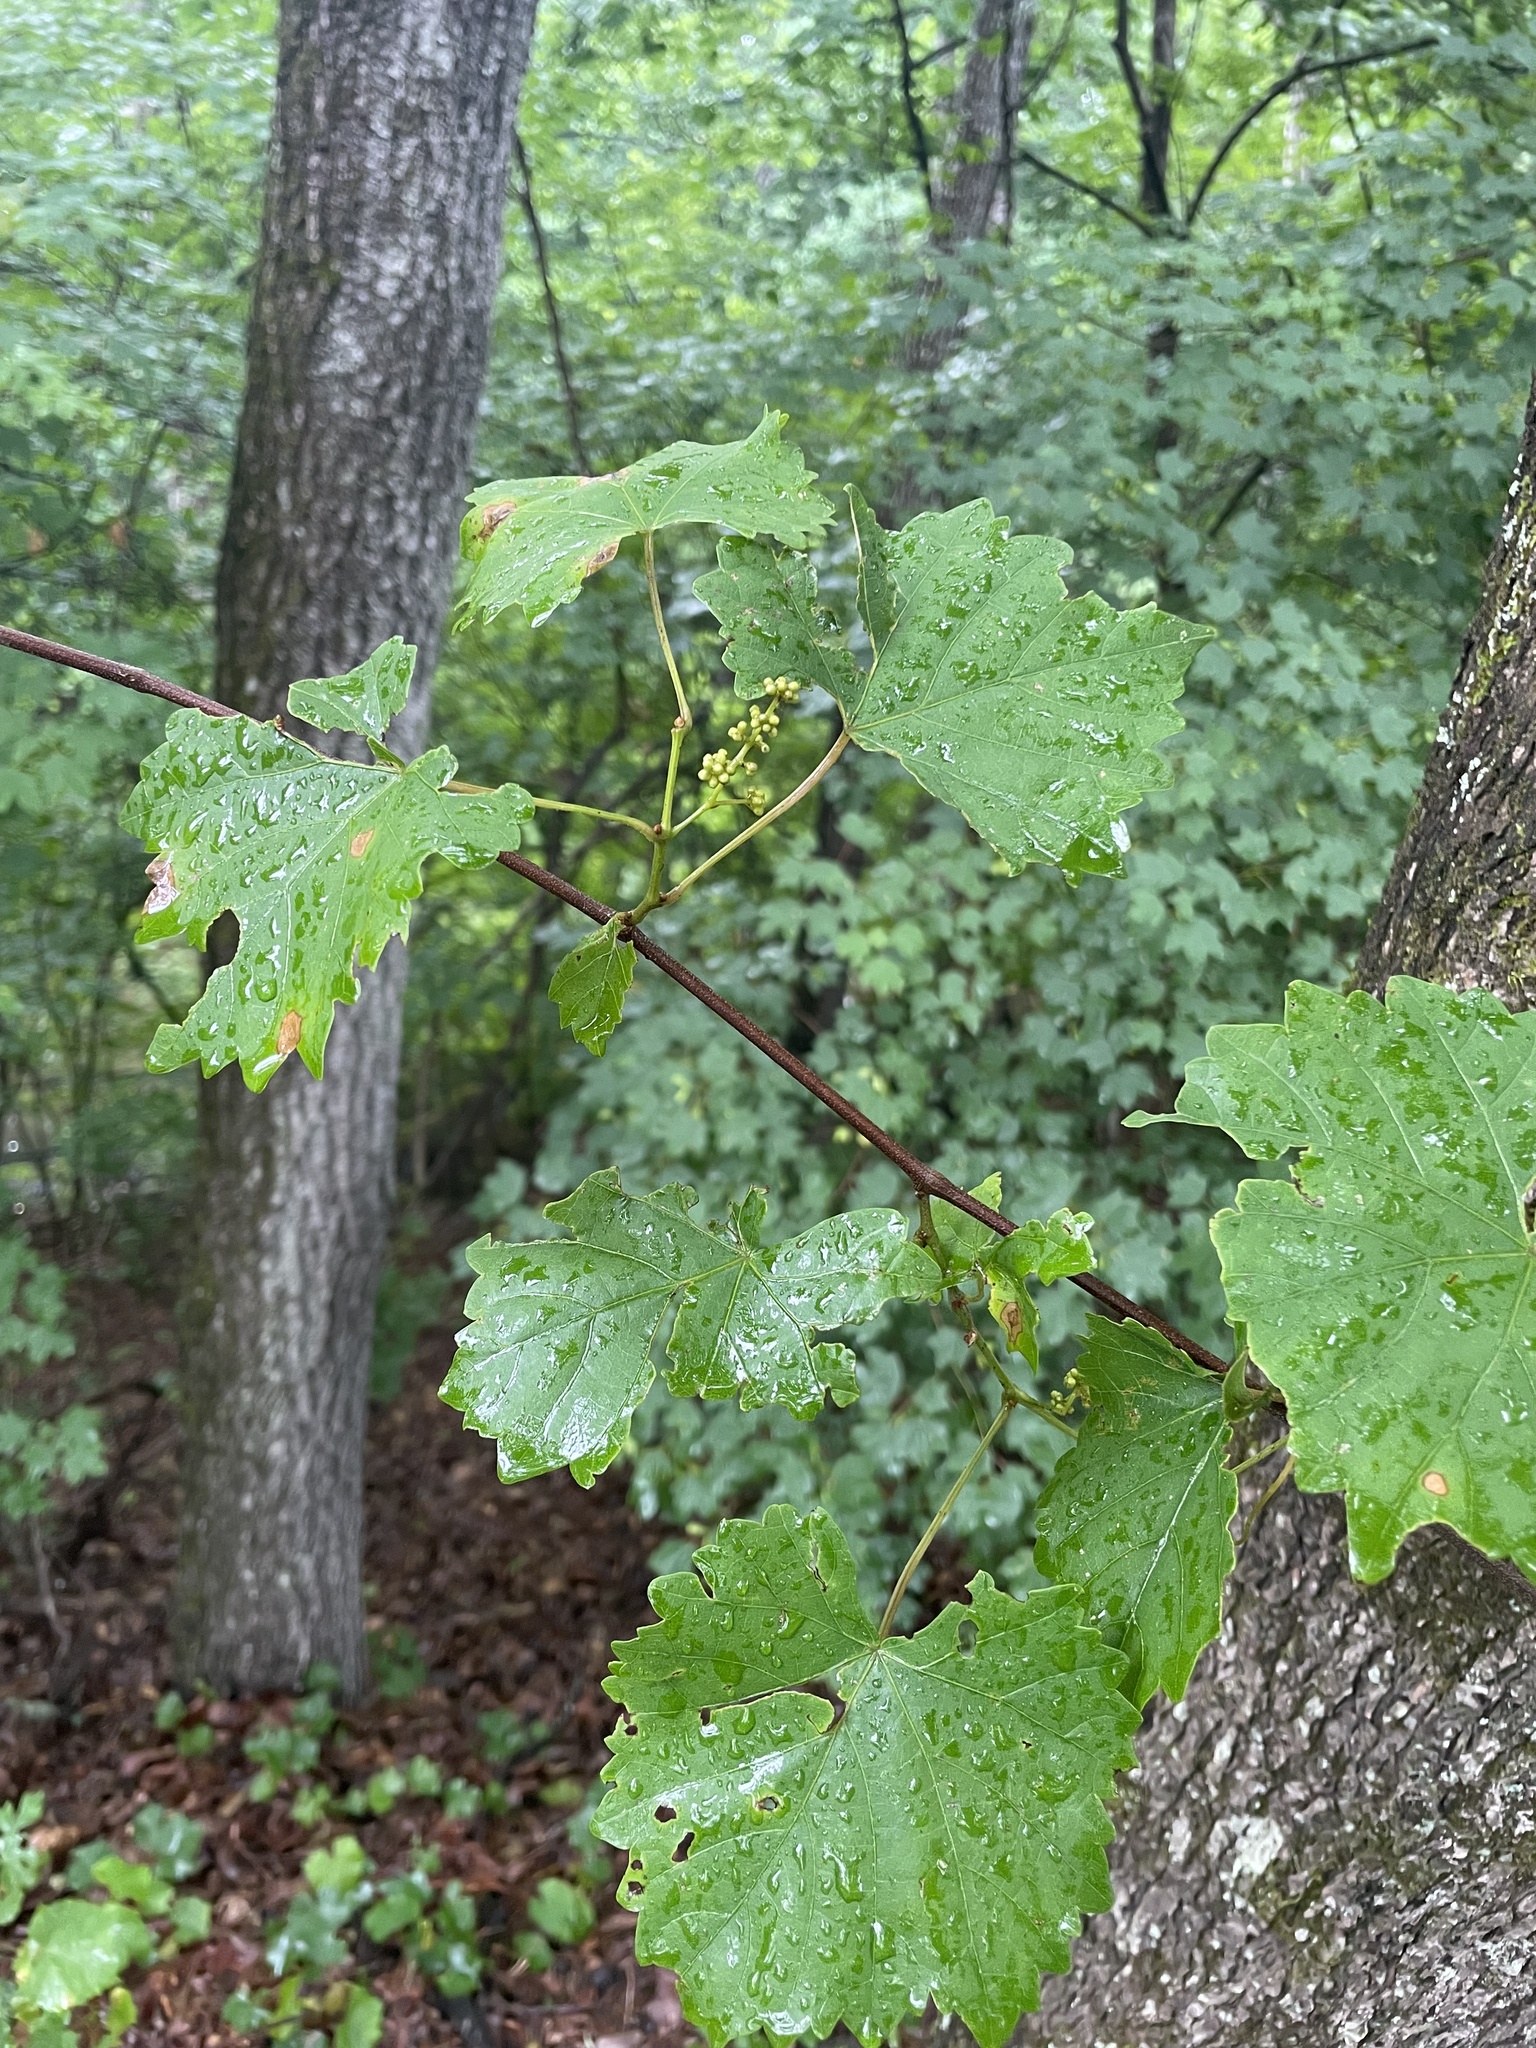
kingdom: Plantae
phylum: Tracheophyta
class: Magnoliopsida
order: Vitales
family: Vitaceae
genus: Vitis
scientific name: Vitis rotundifolia
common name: Muscadine grape
